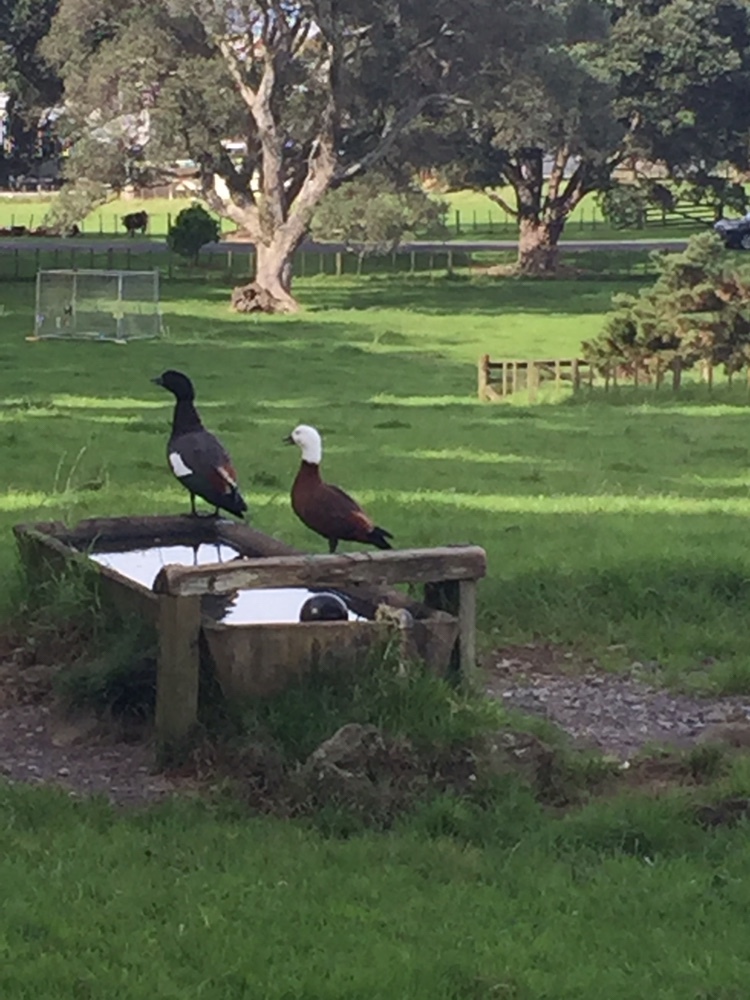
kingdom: Animalia
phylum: Chordata
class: Aves
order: Anseriformes
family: Anatidae
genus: Tadorna
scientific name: Tadorna variegata
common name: Paradise shelduck
